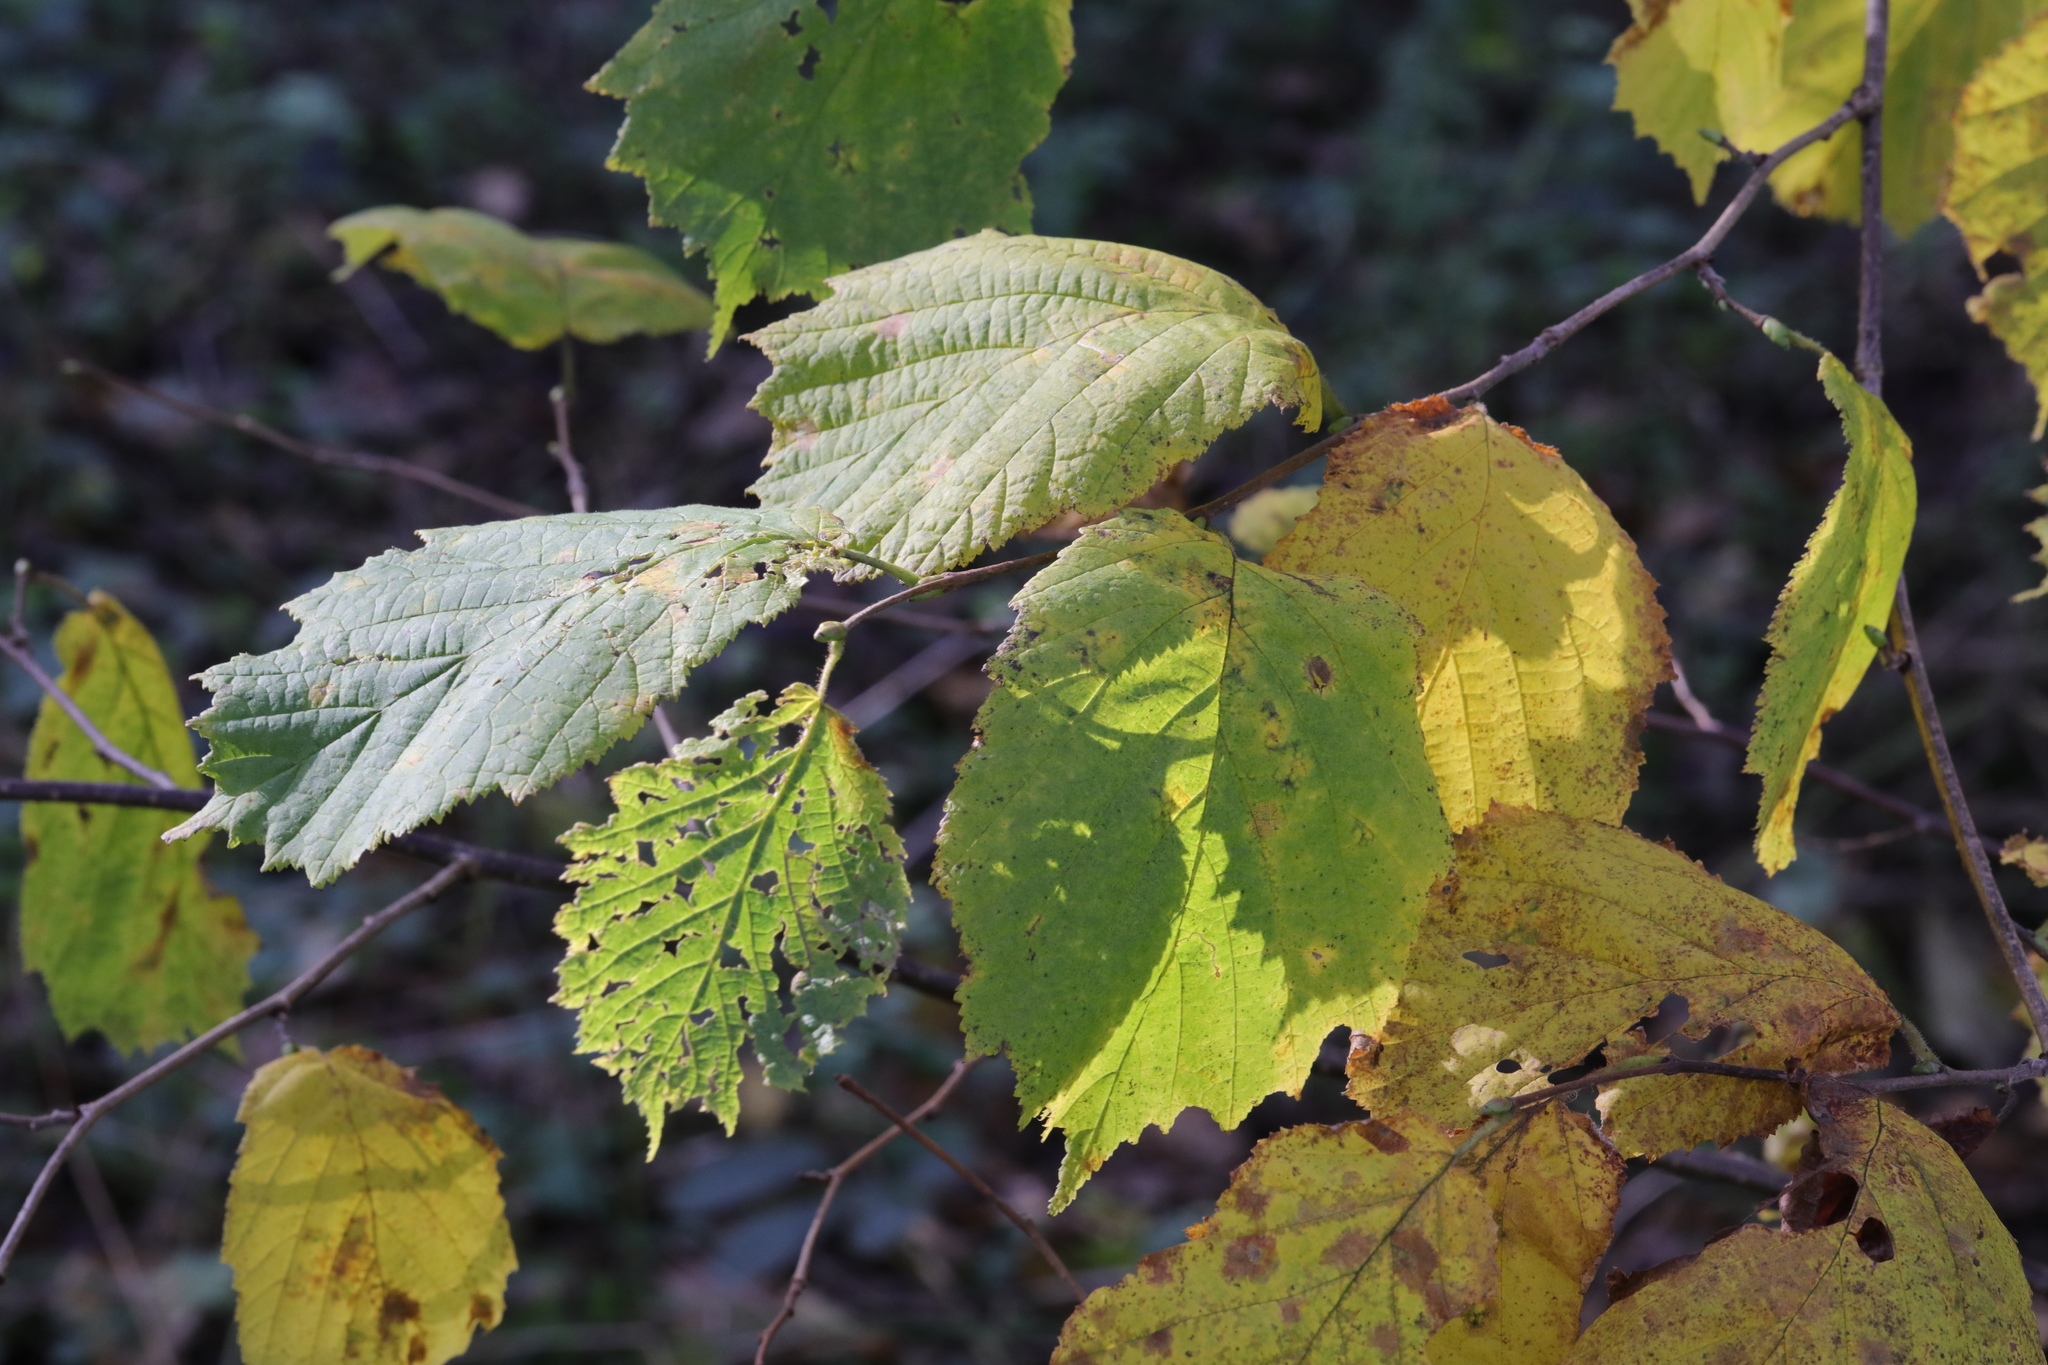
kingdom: Plantae
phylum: Tracheophyta
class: Magnoliopsida
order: Fagales
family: Betulaceae
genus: Corylus
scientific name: Corylus avellana
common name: European hazel
